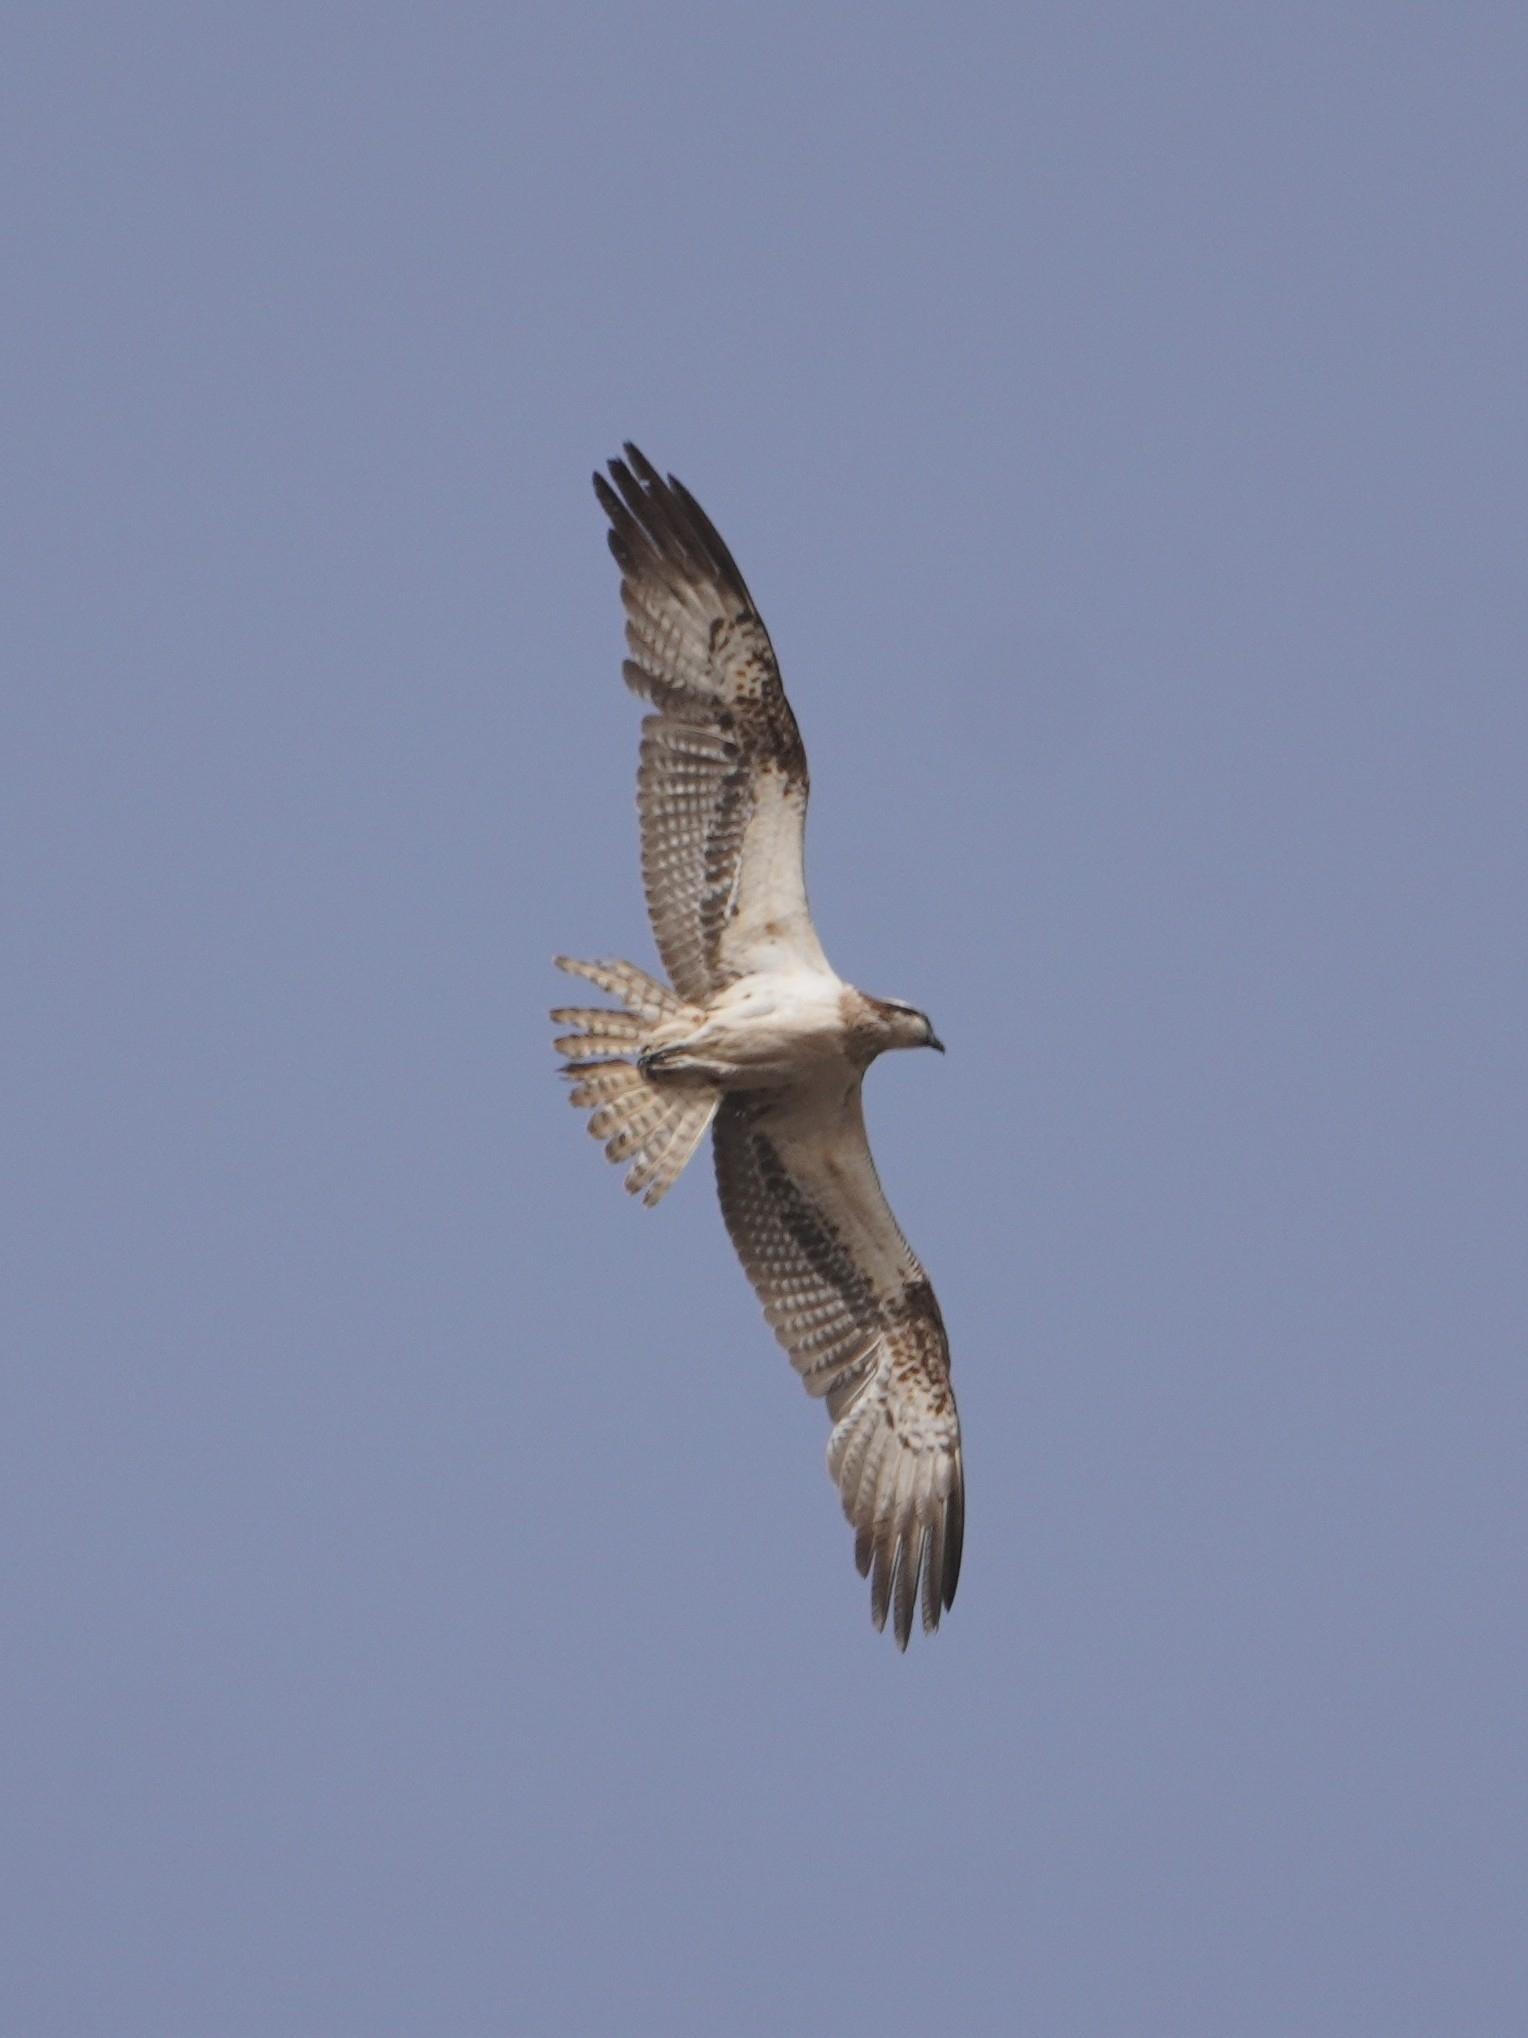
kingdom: Animalia
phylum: Chordata
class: Aves
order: Accipitriformes
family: Pandionidae
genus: Pandion
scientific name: Pandion haliaetus
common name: Osprey
